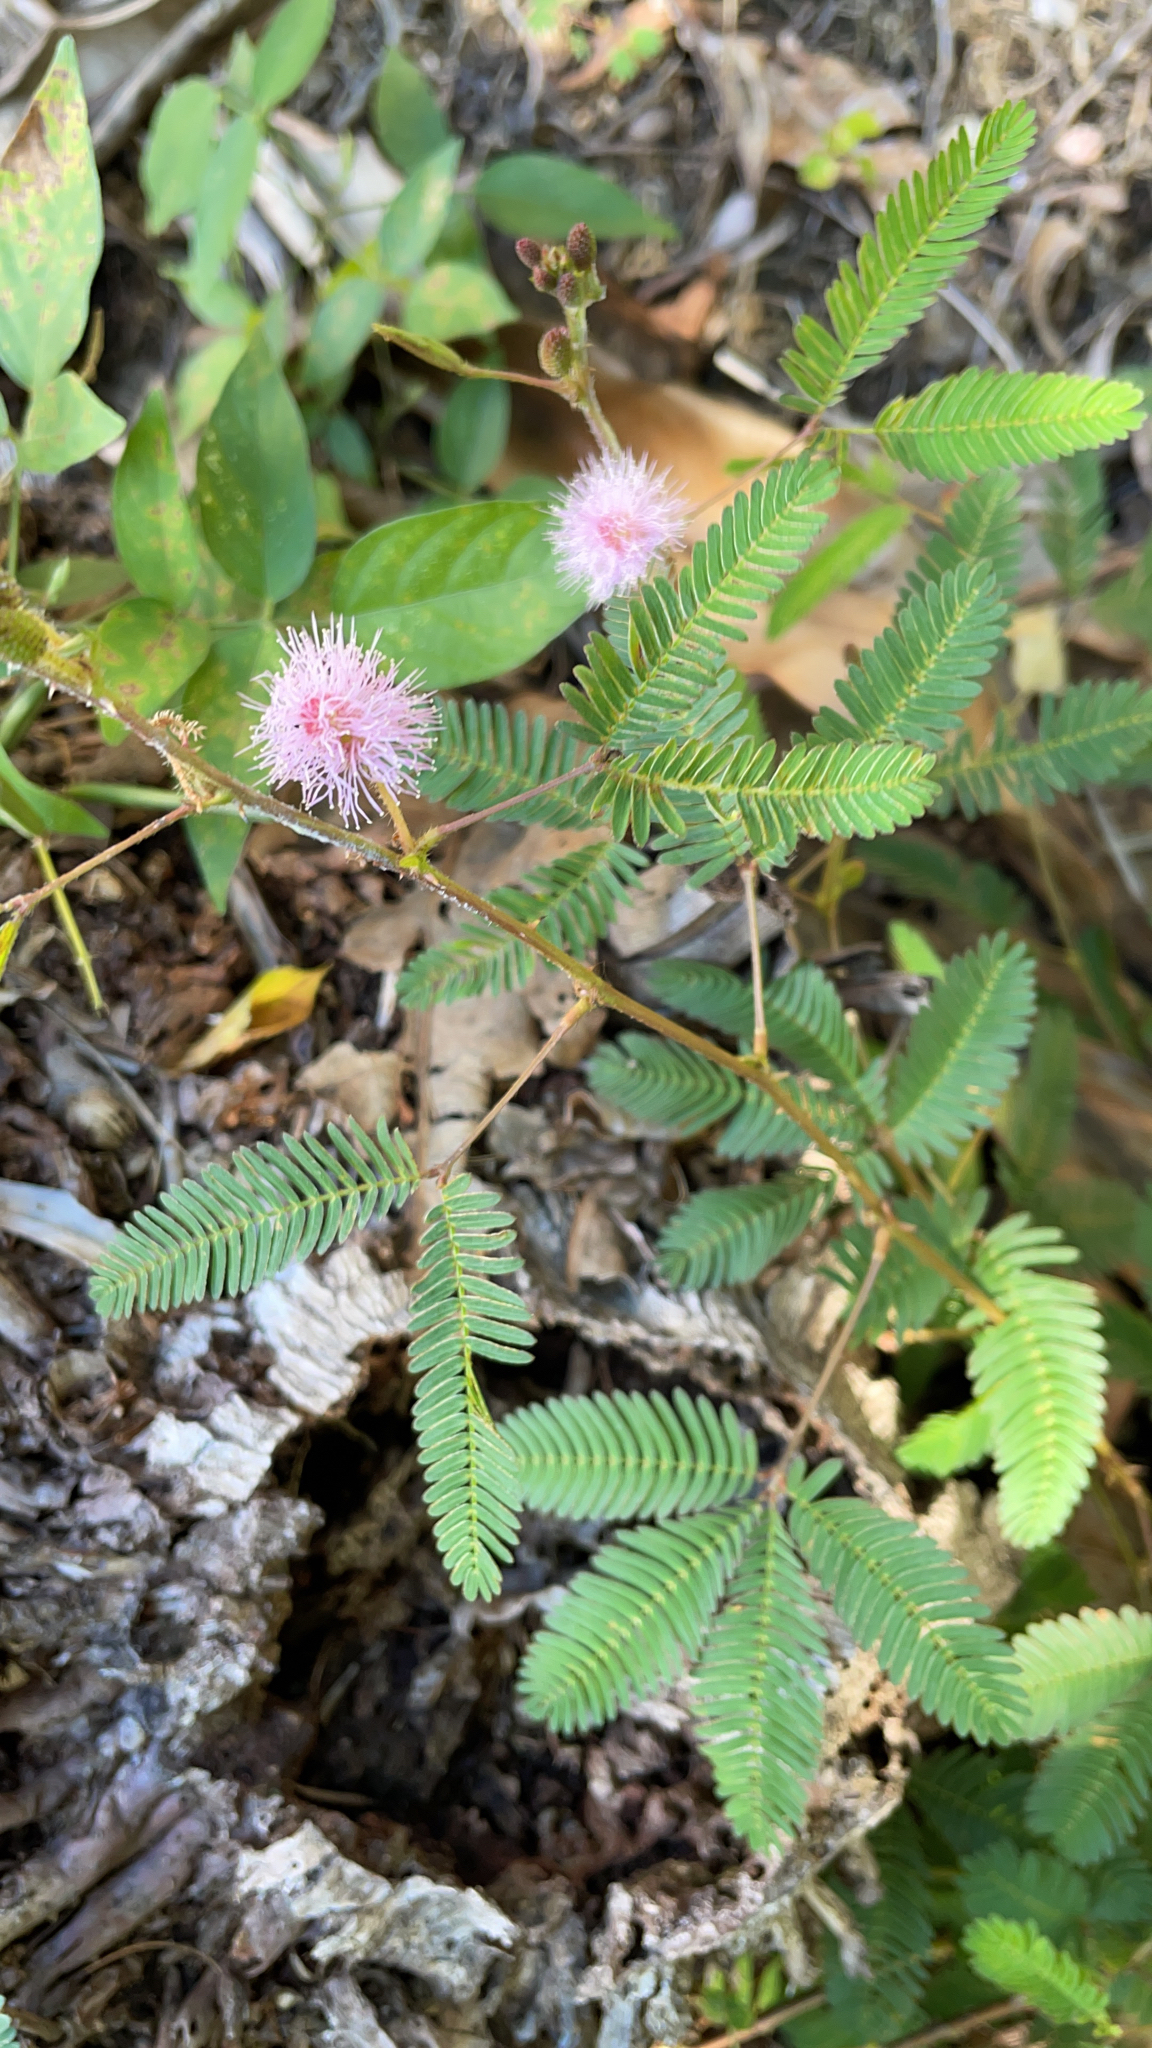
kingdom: Plantae
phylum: Tracheophyta
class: Magnoliopsida
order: Fabales
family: Fabaceae
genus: Mimosa
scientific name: Mimosa pudica
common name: Sensitive plant
